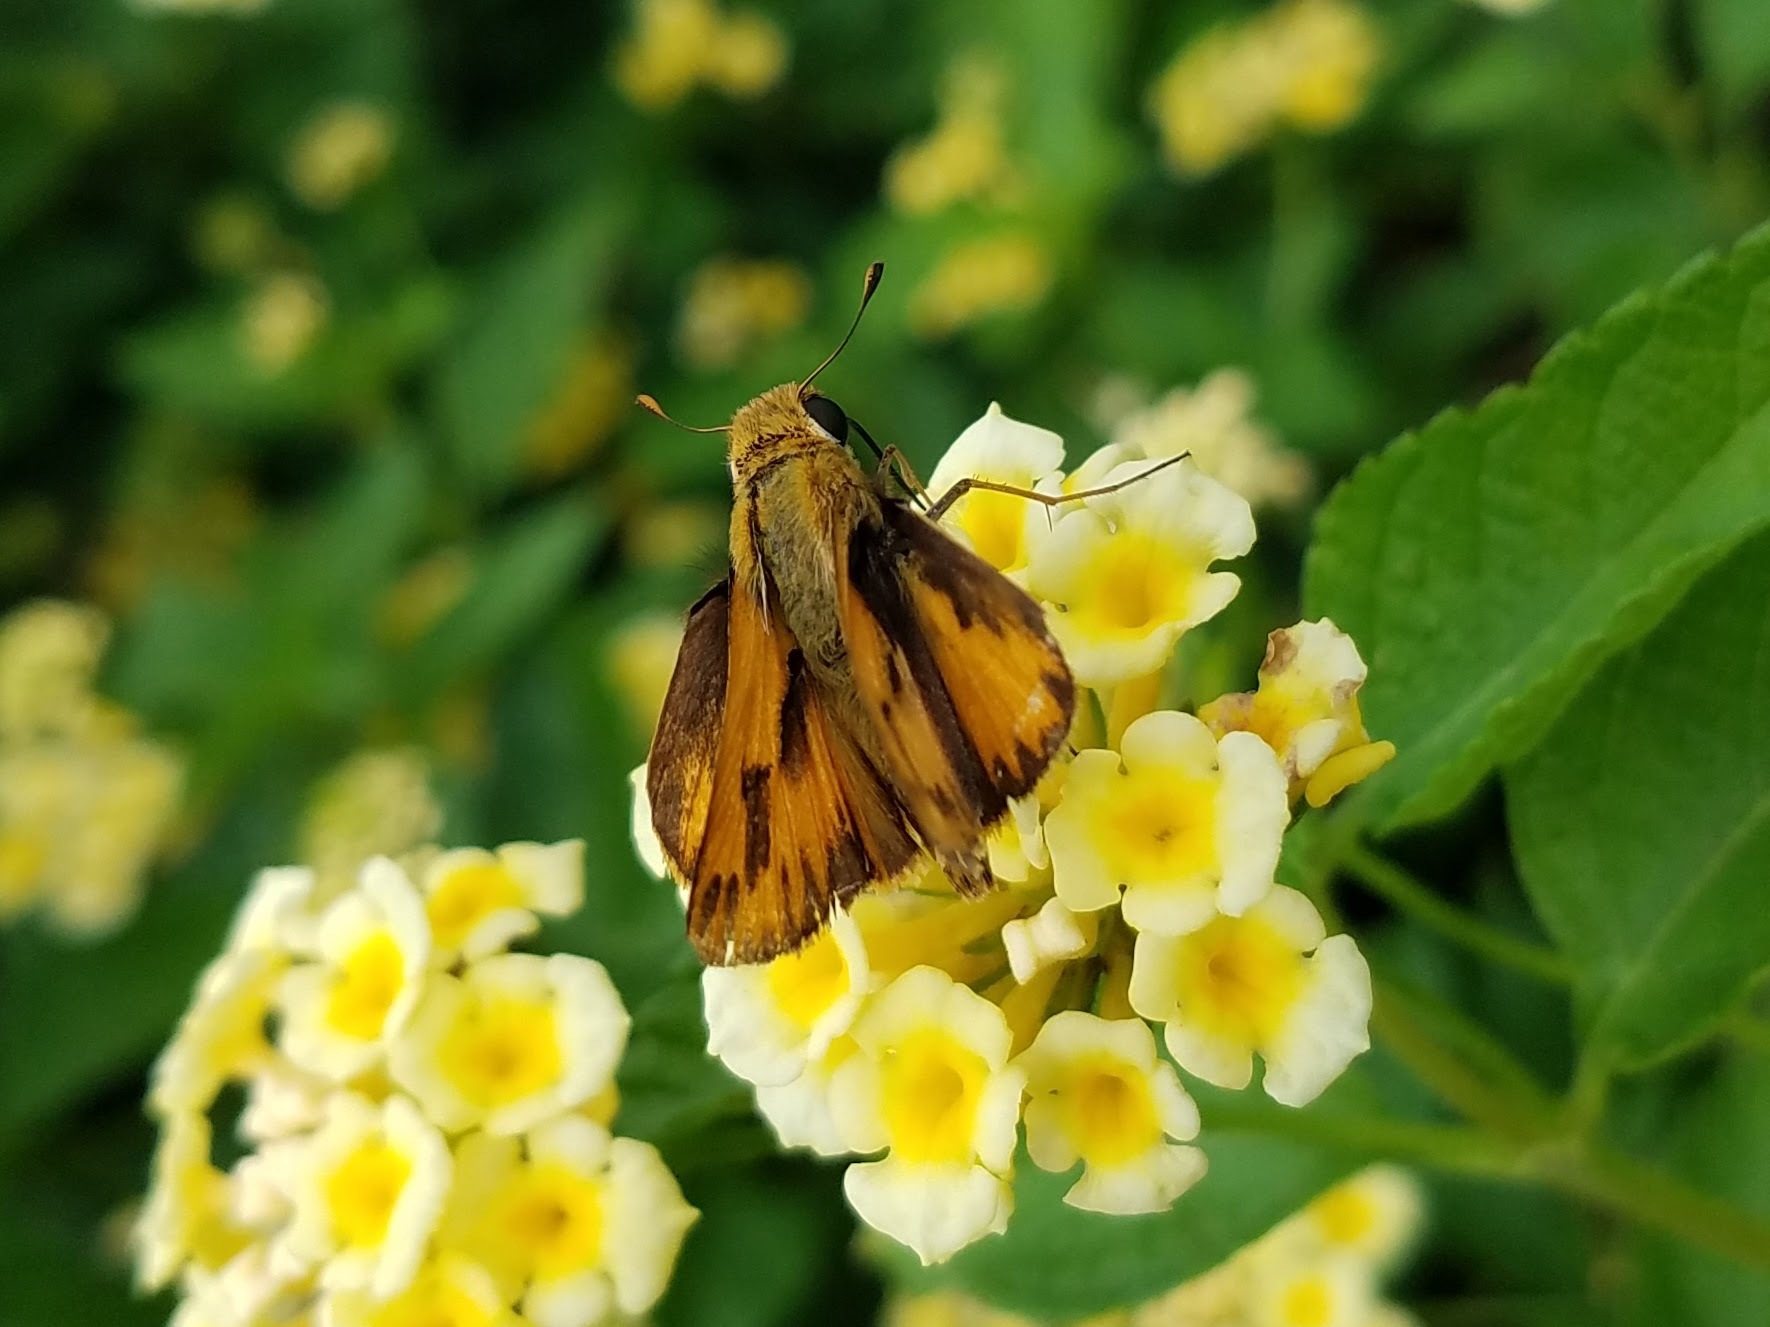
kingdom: Animalia
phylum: Arthropoda
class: Insecta
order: Lepidoptera
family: Hesperiidae
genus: Hylephila
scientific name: Hylephila phyleus
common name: Fiery skipper
